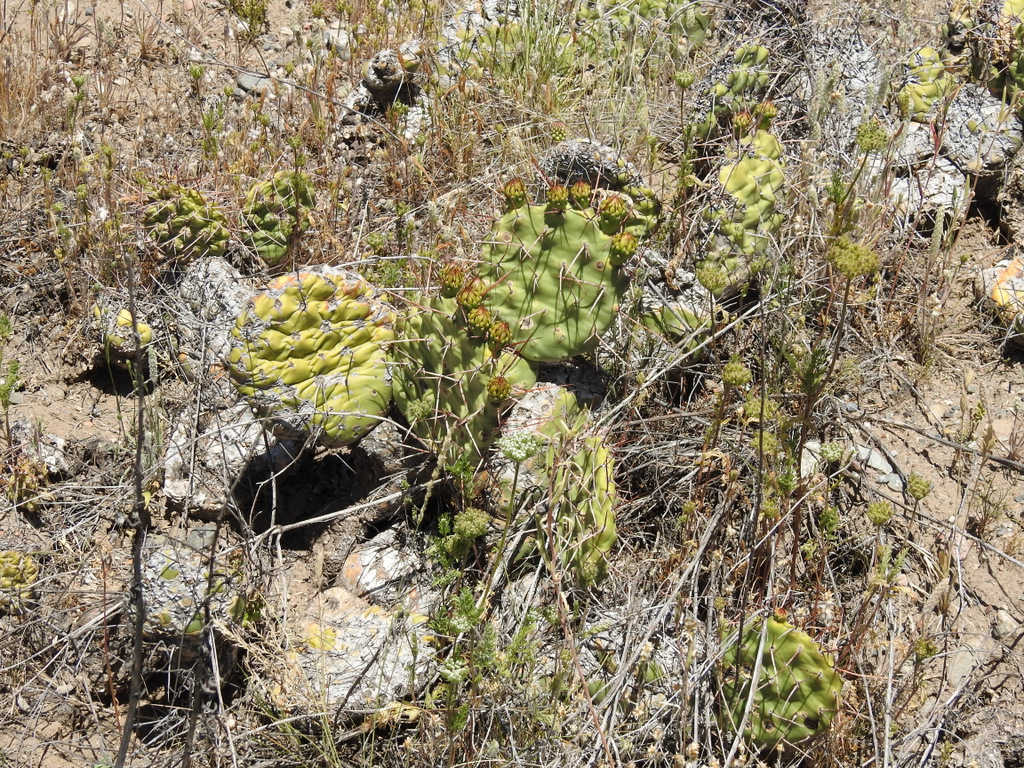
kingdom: Plantae
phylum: Tracheophyta
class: Magnoliopsida
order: Caryophyllales
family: Cactaceae
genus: Opuntia
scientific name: Opuntia sulphurea
